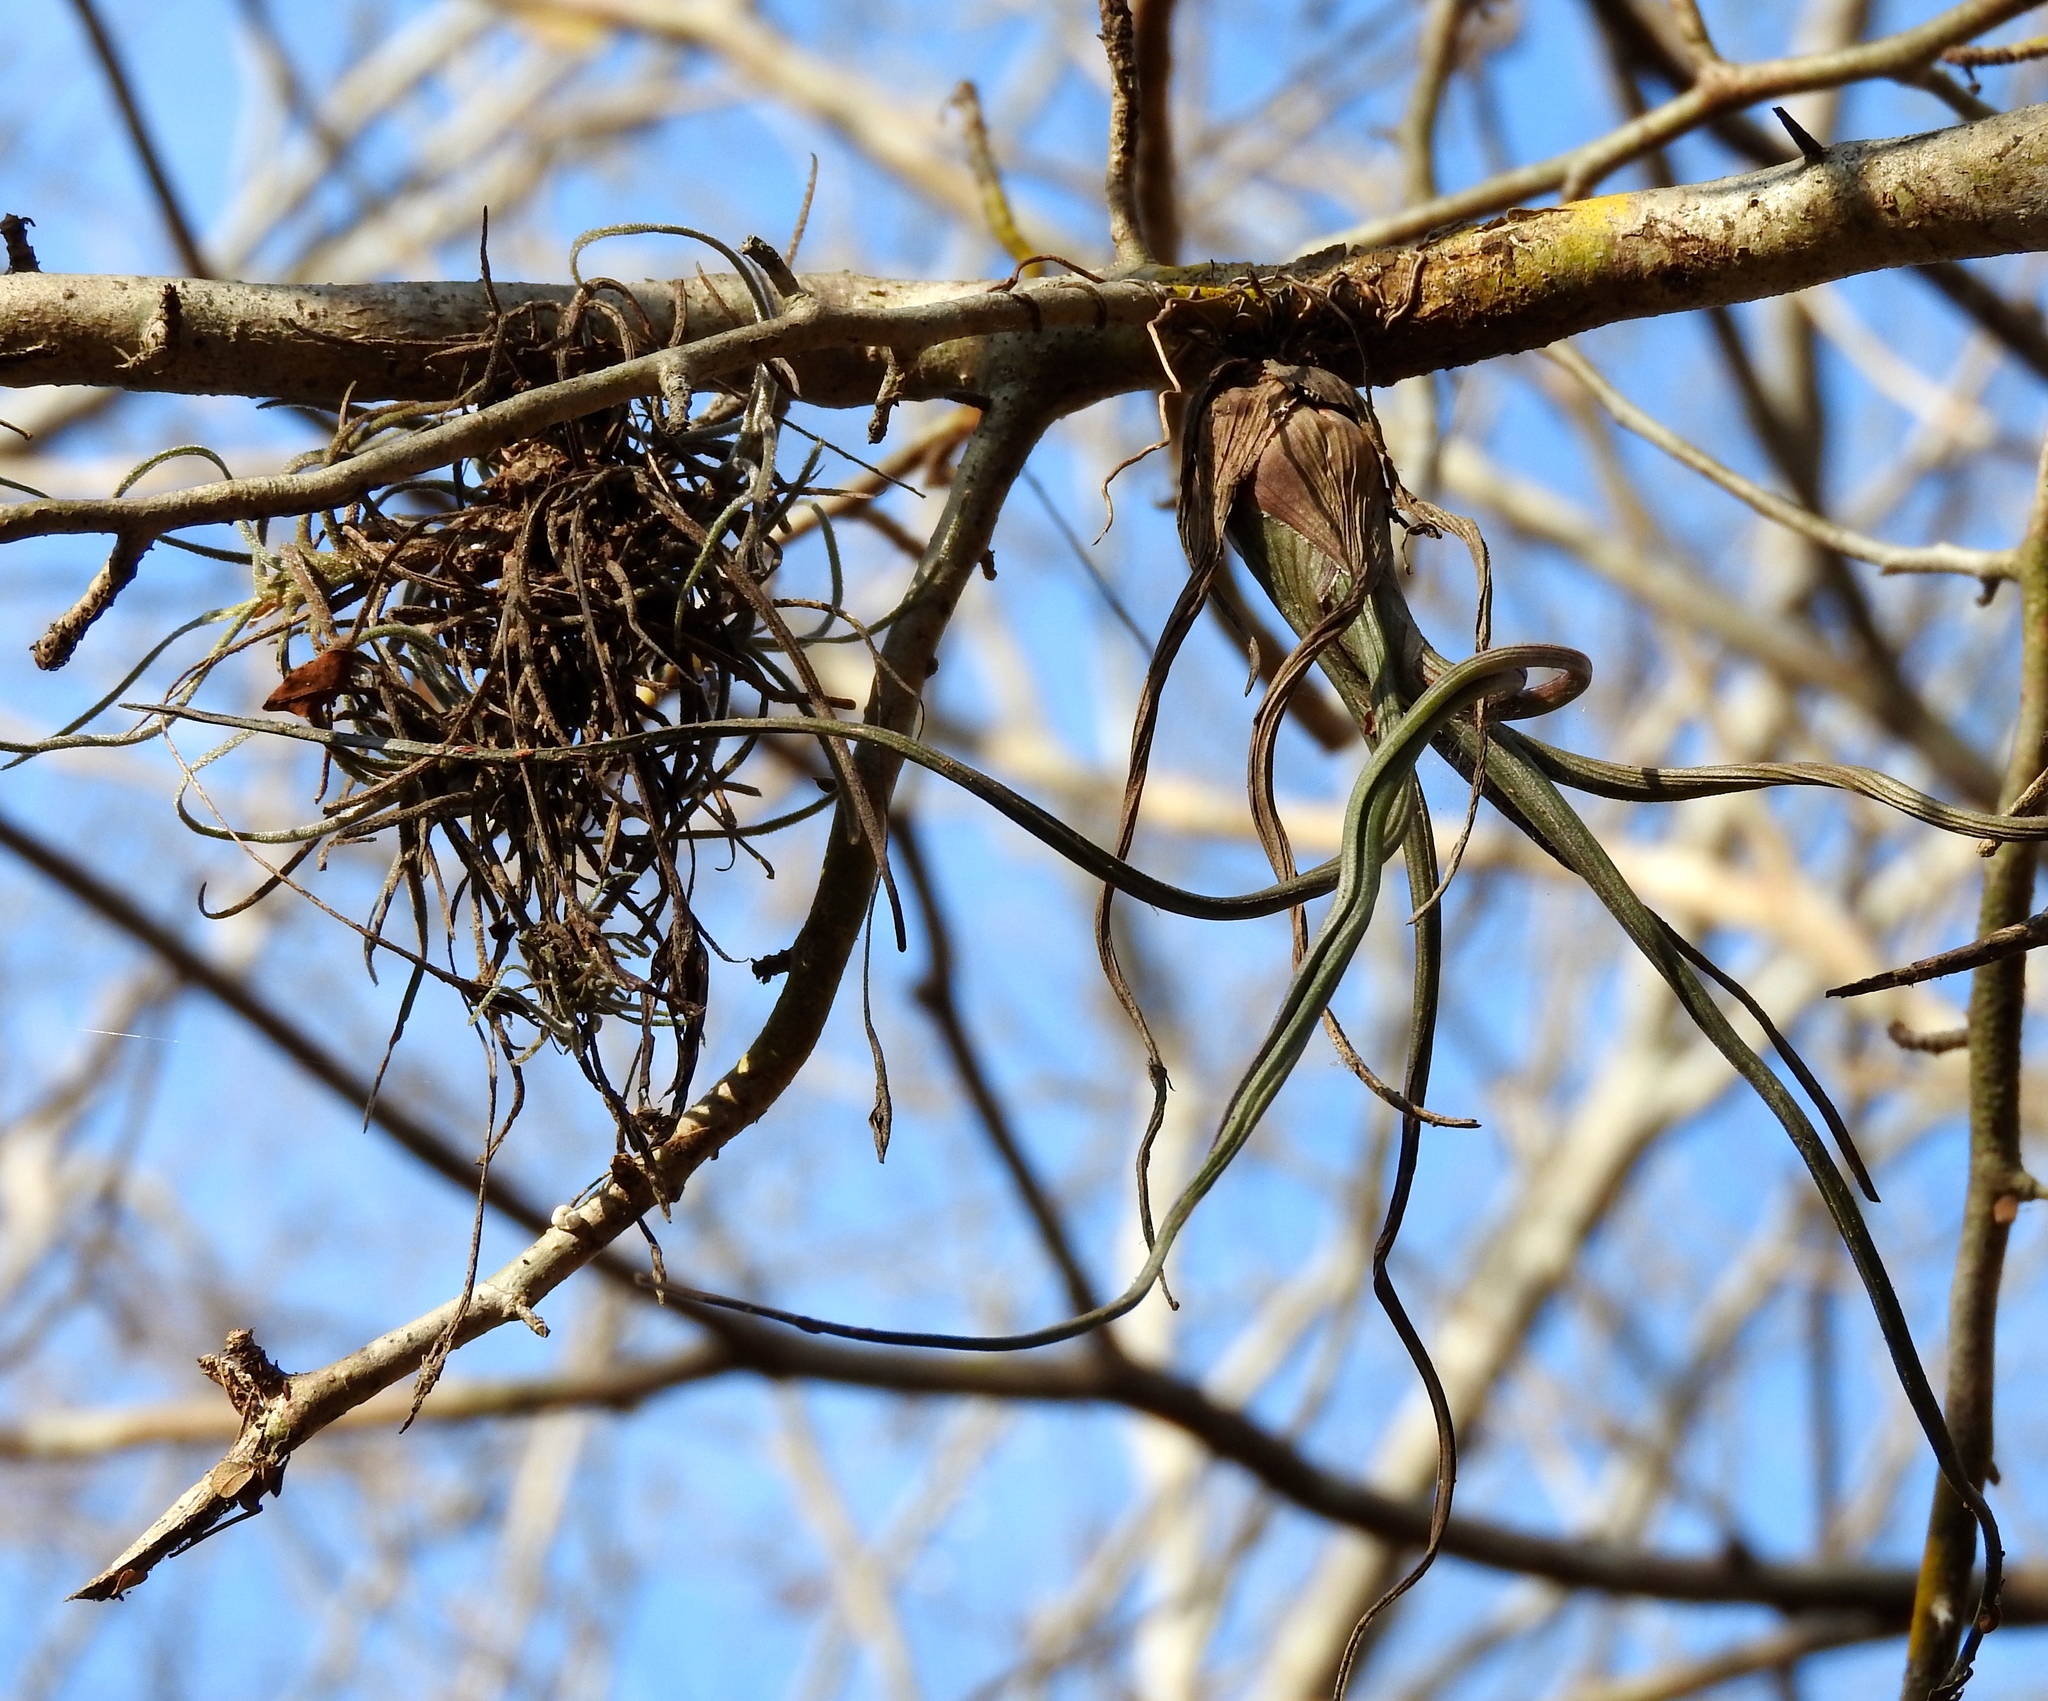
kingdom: Plantae
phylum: Tracheophyta
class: Liliopsida
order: Poales
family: Bromeliaceae
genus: Tillandsia
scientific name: Tillandsia pseudobaileyi
